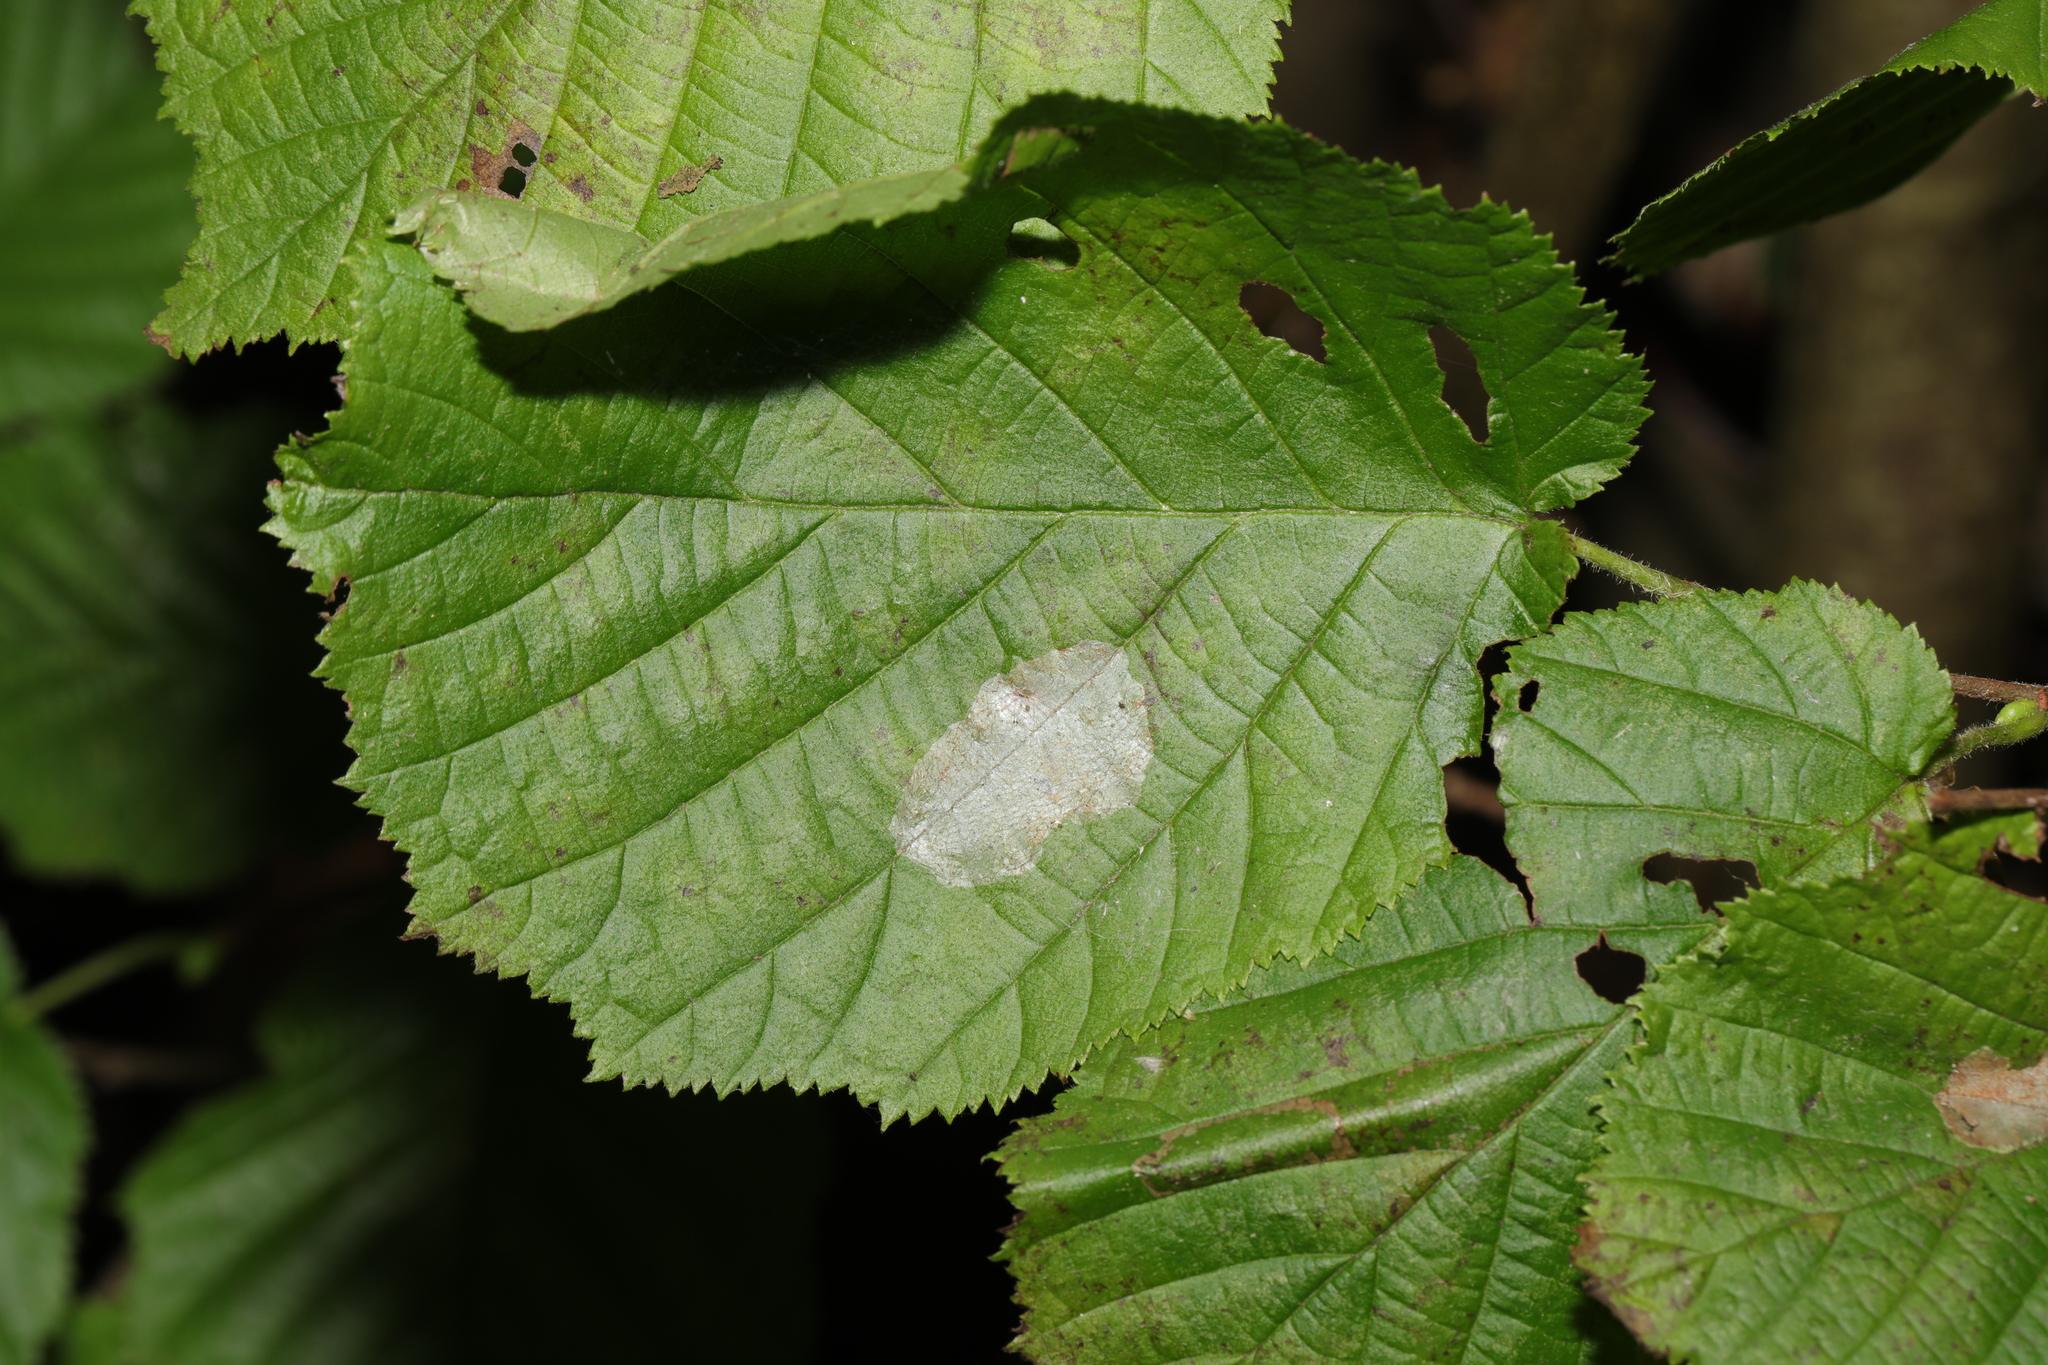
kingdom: Plantae
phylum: Tracheophyta
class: Magnoliopsida
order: Fagales
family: Betulaceae
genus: Corylus
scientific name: Corylus avellana
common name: European hazel
